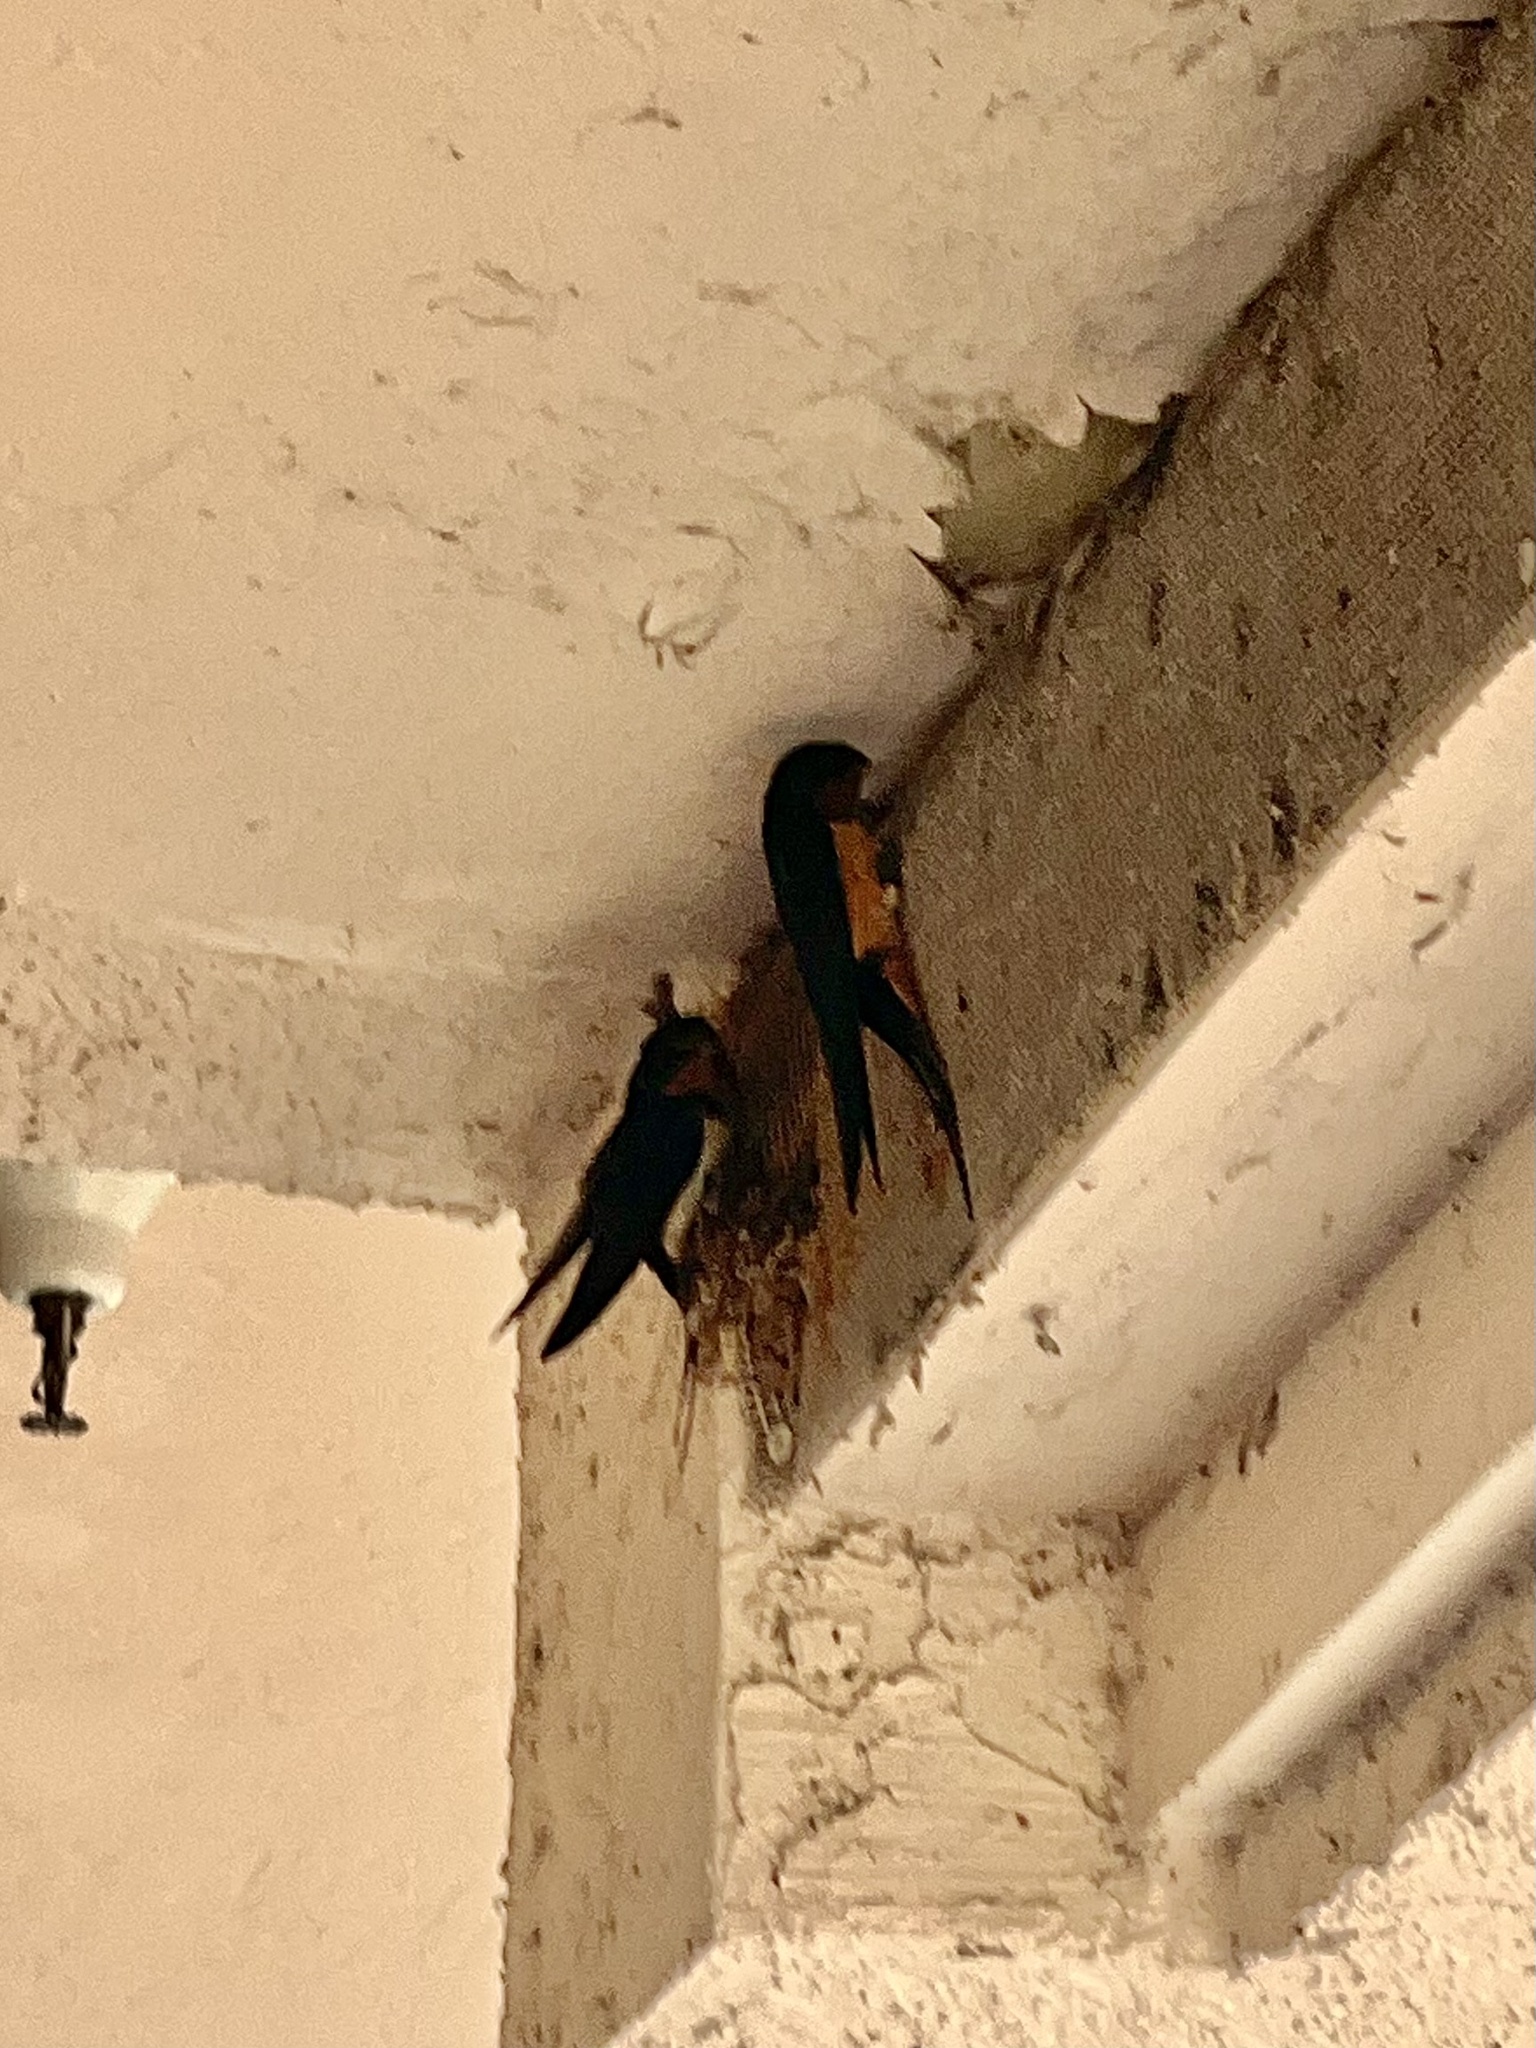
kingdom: Animalia
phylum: Chordata
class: Aves
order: Passeriformes
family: Hirundinidae
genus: Hirundo
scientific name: Hirundo rustica
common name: Barn swallow
